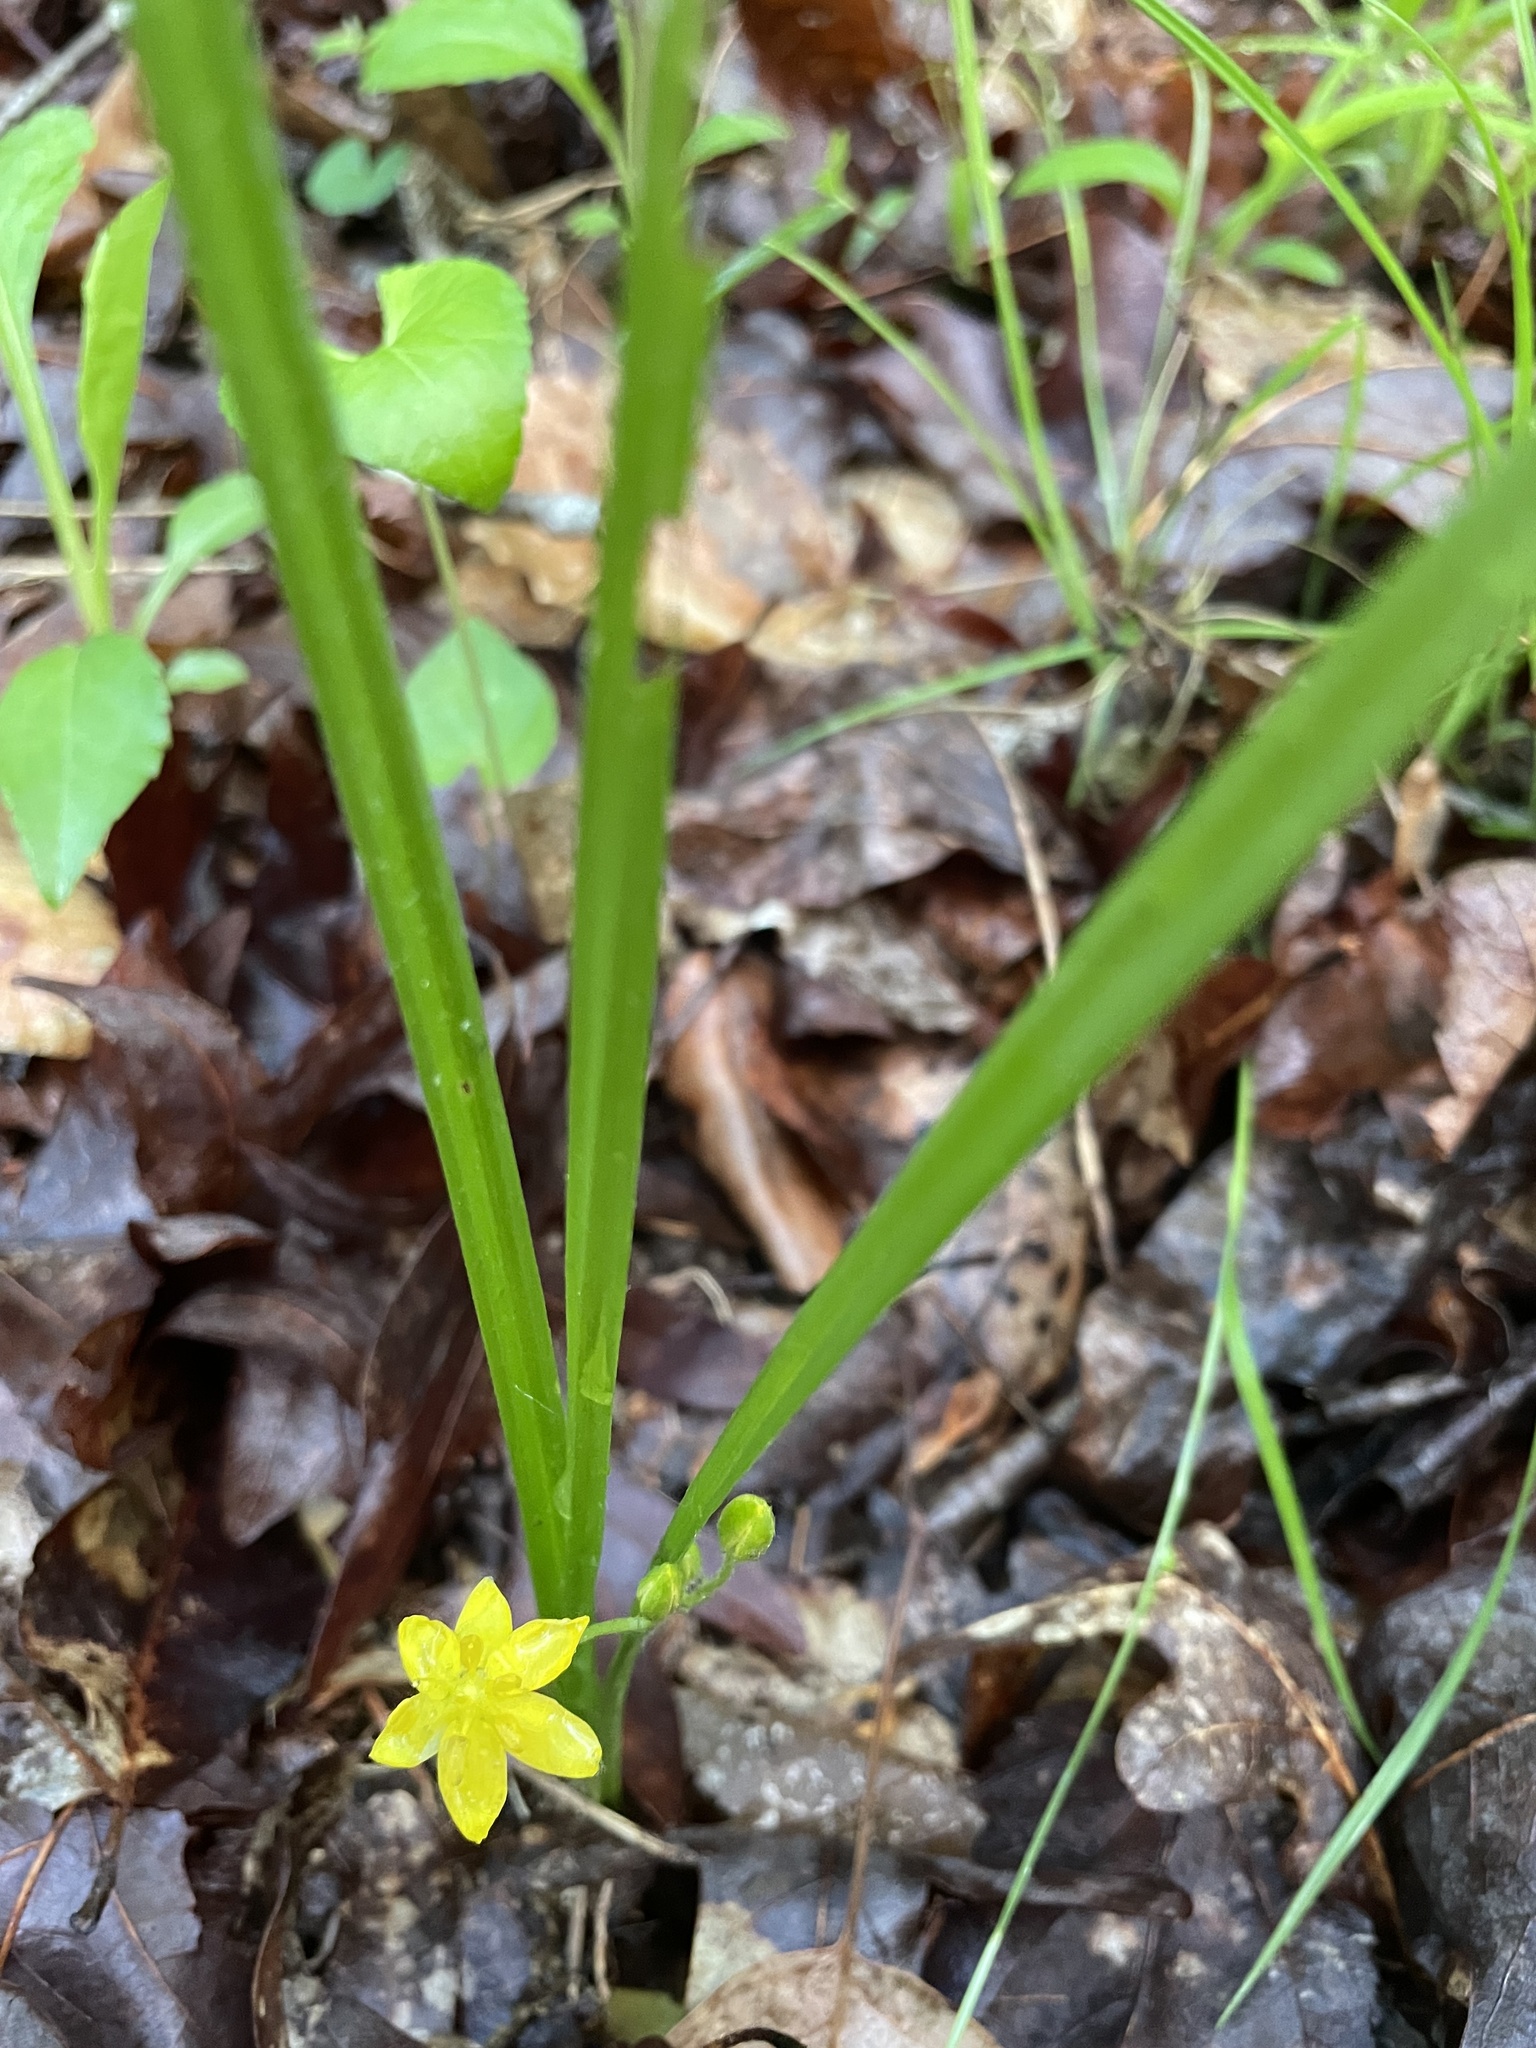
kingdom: Plantae
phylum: Tracheophyta
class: Liliopsida
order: Asparagales
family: Hypoxidaceae
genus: Hypoxis
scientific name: Hypoxis hirsuta
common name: Common goldstar
